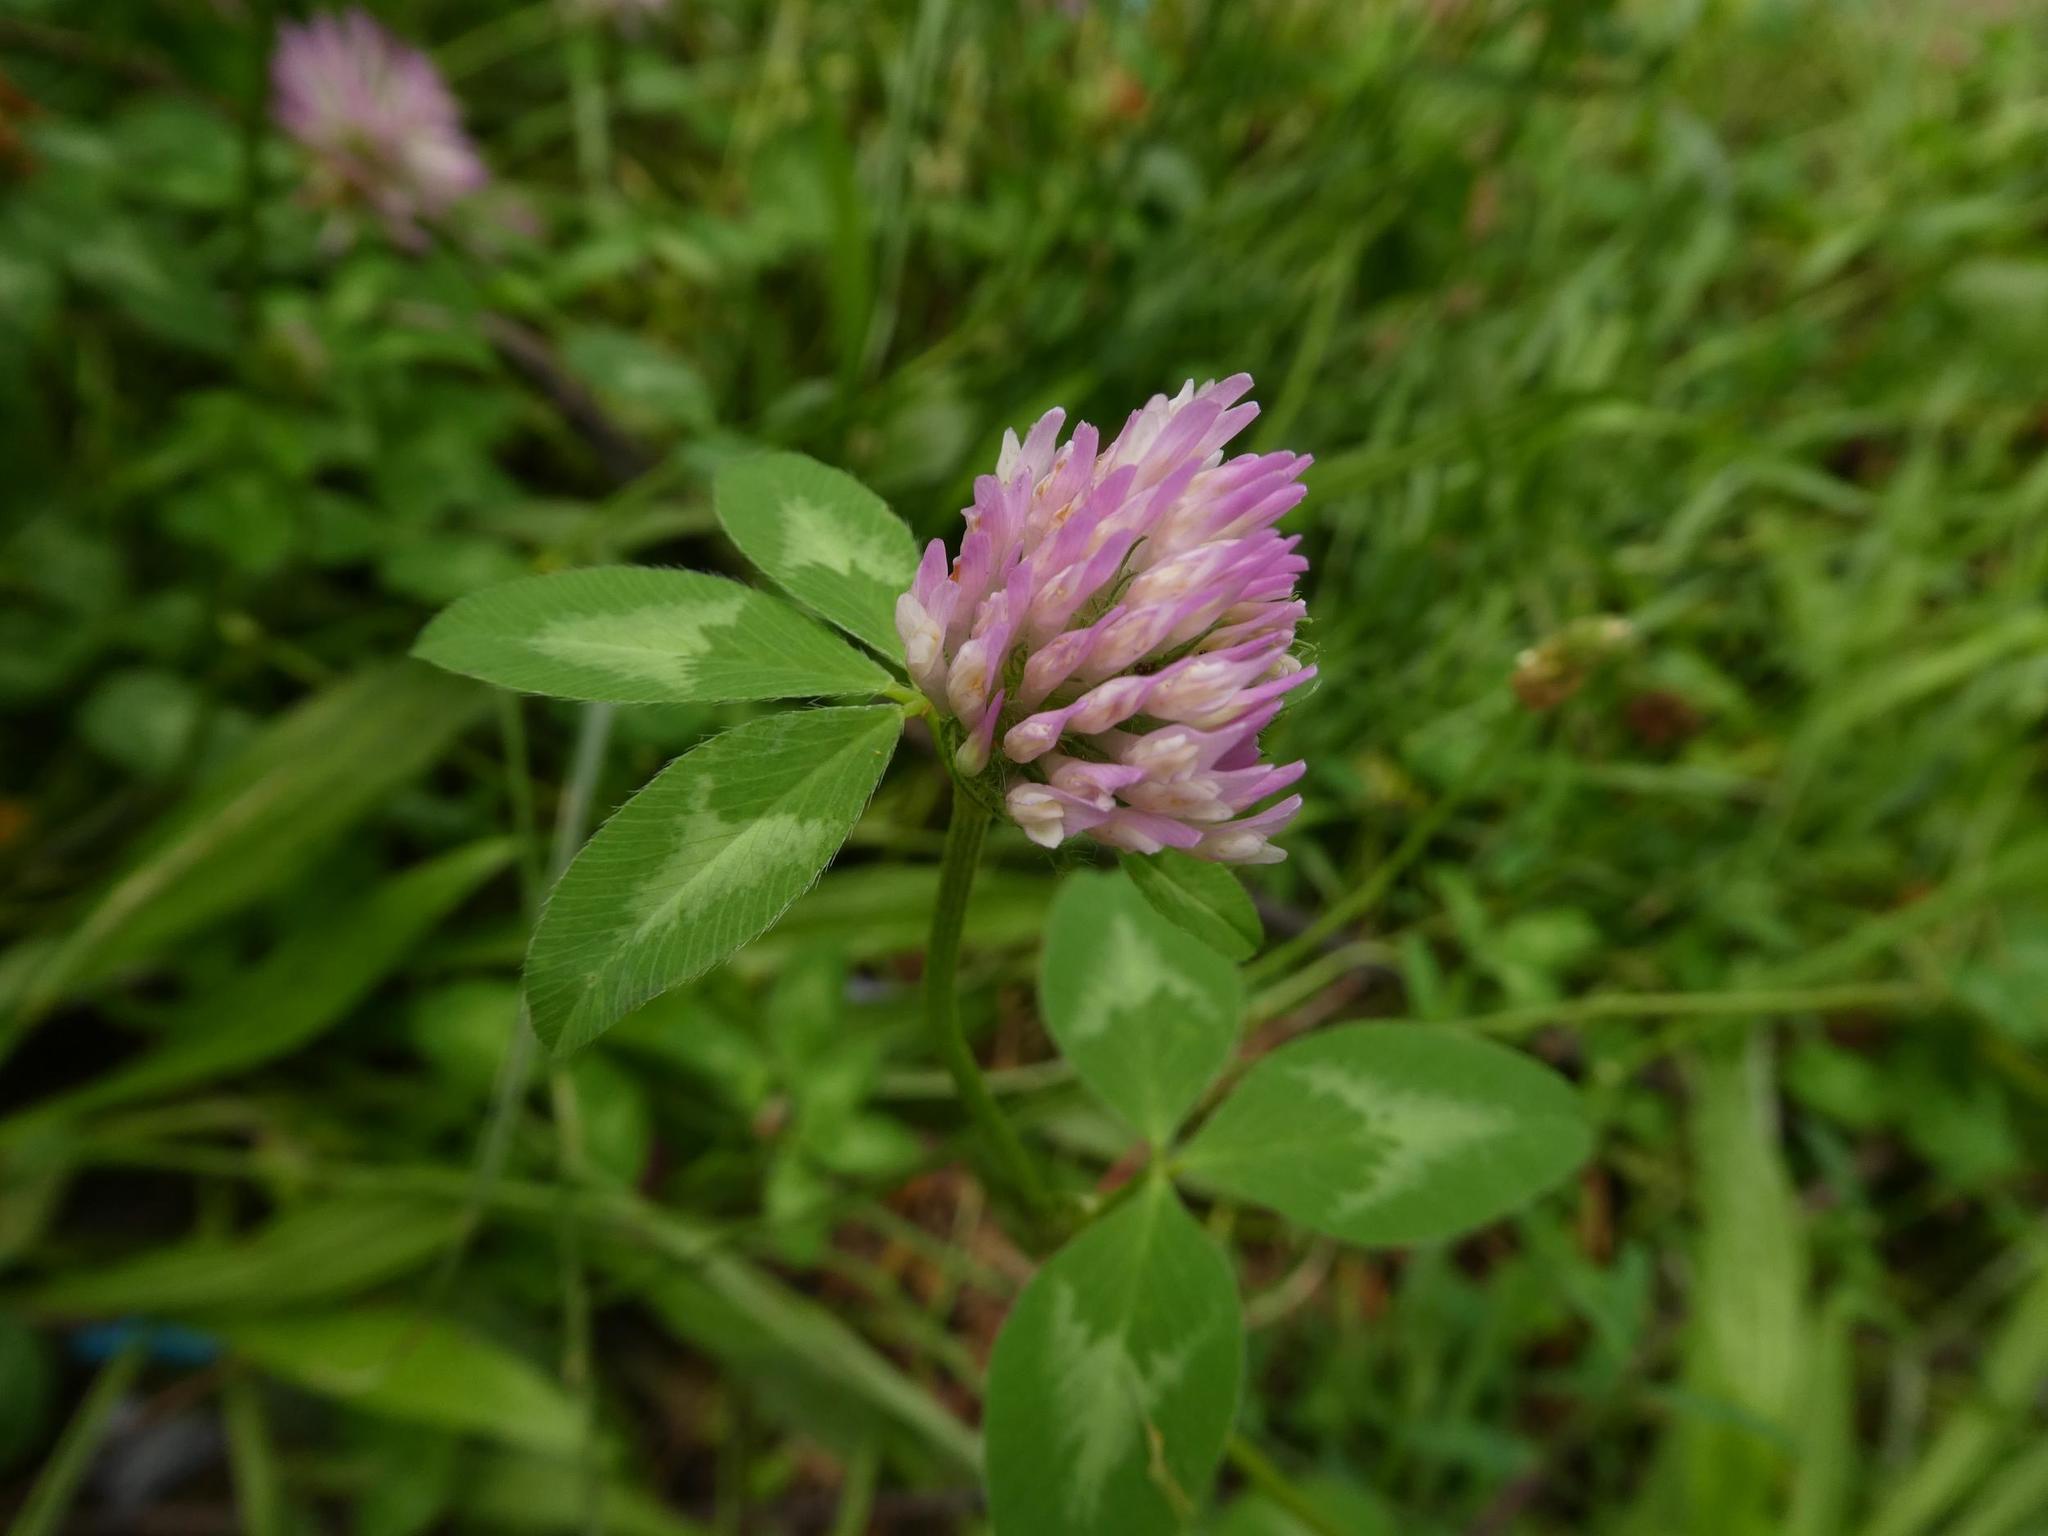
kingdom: Plantae
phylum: Tracheophyta
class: Magnoliopsida
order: Fabales
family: Fabaceae
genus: Trifolium
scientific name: Trifolium pratense
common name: Red clover
